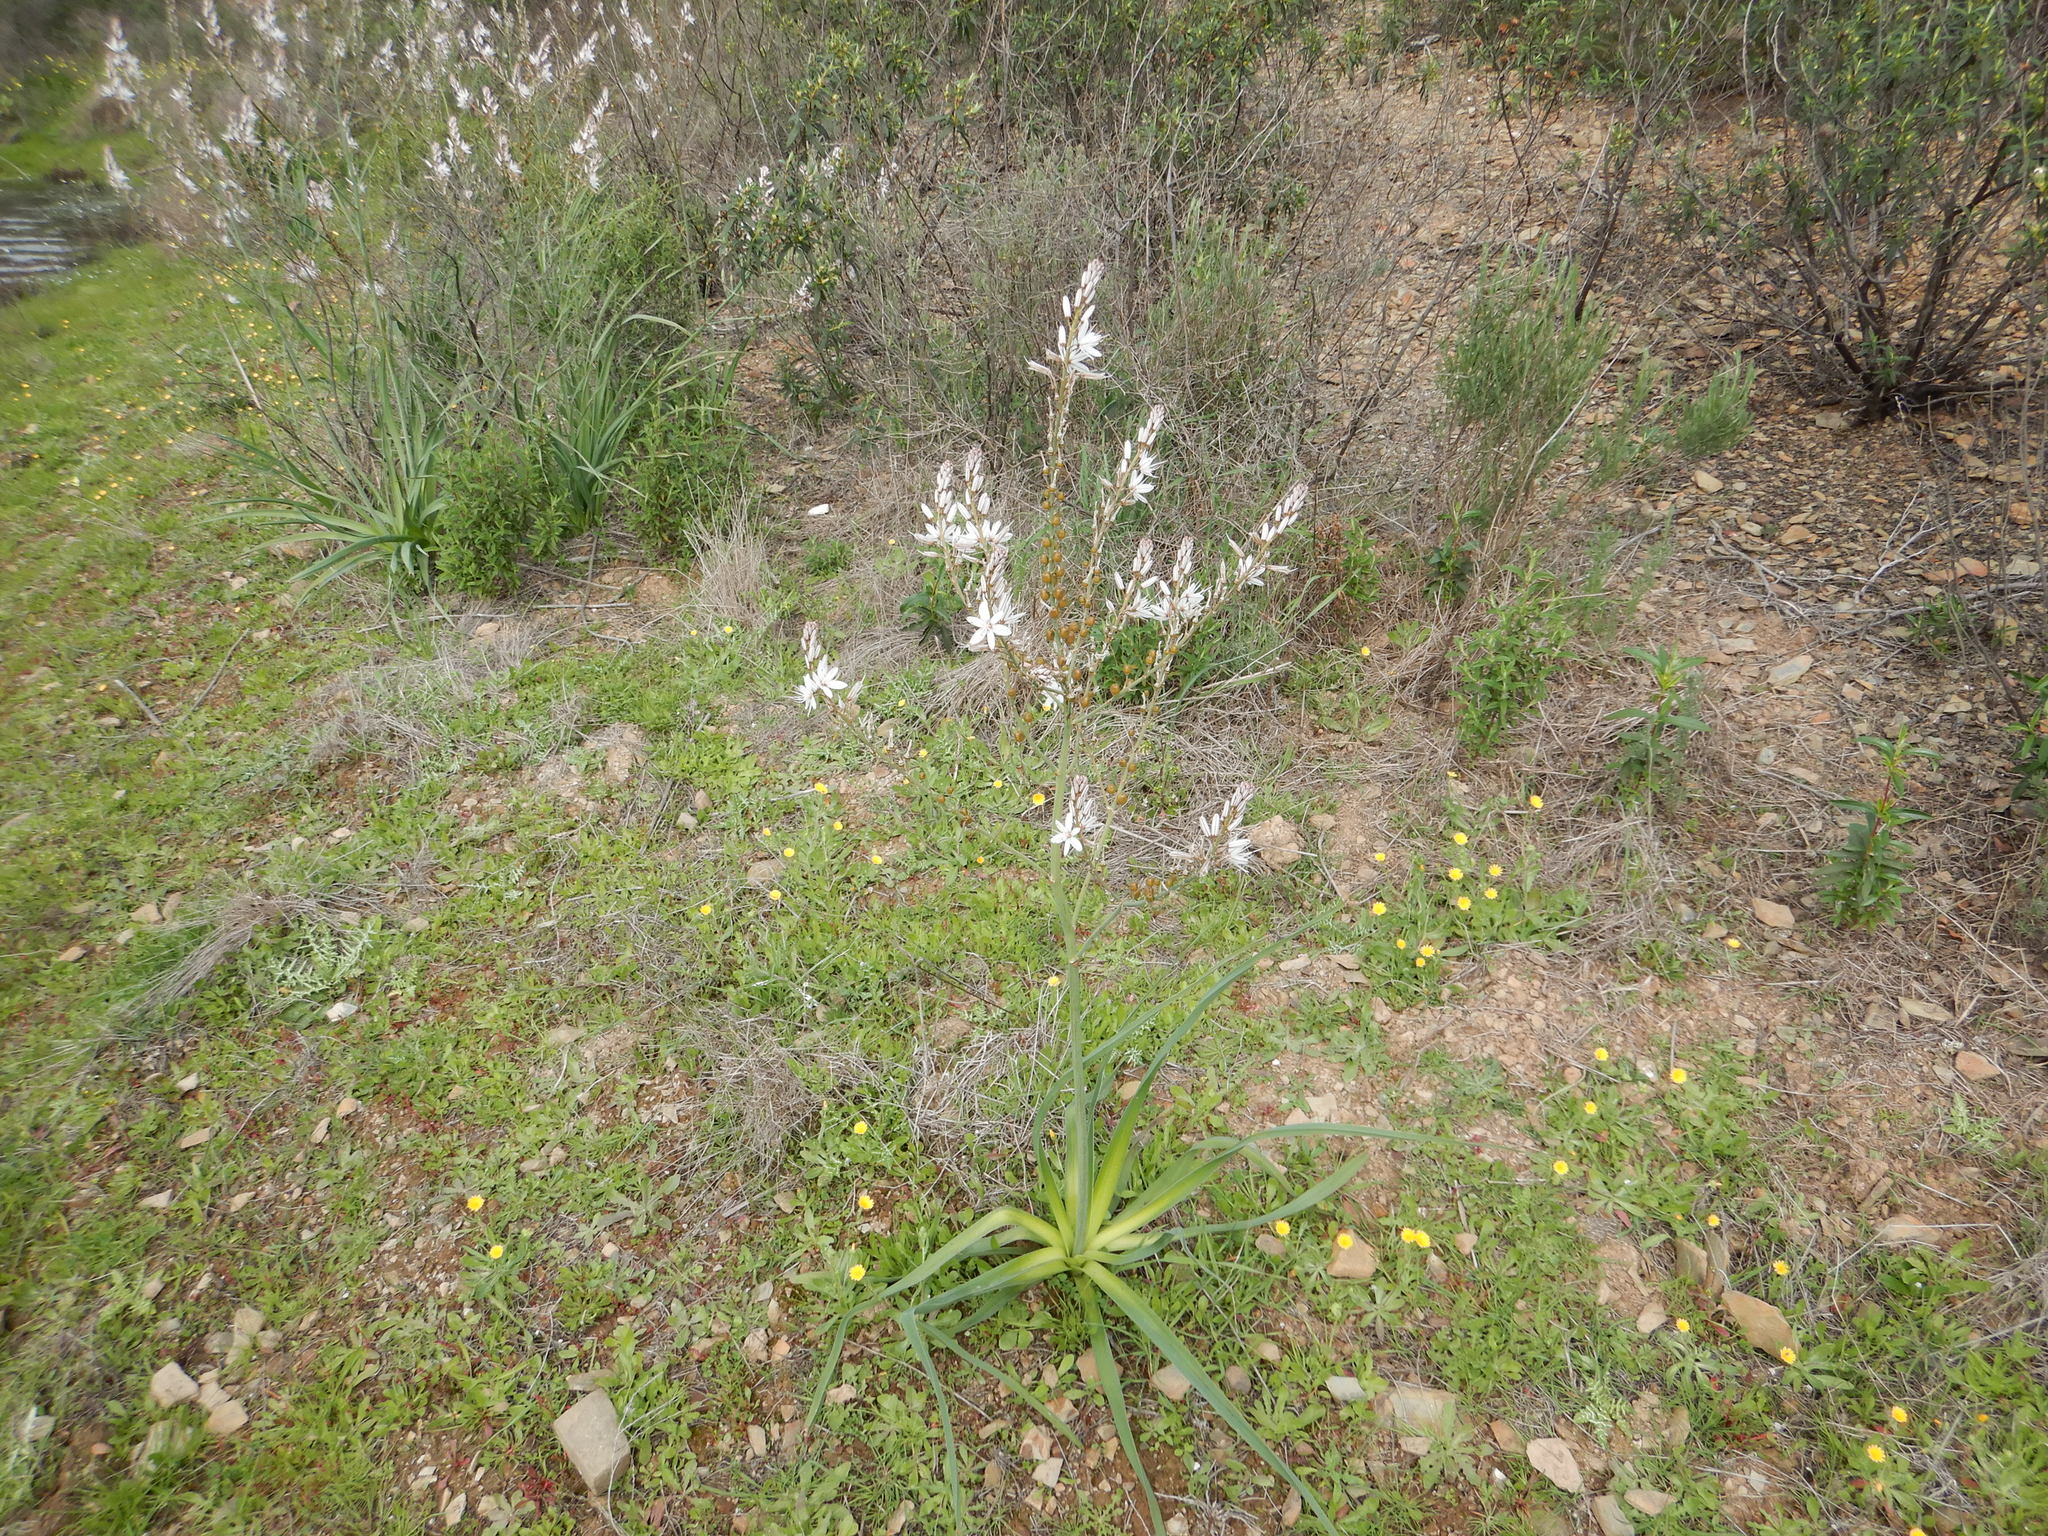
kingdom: Plantae
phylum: Tracheophyta
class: Liliopsida
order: Asparagales
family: Asphodelaceae
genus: Asphodelus
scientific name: Asphodelus ramosus
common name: Silverrod
